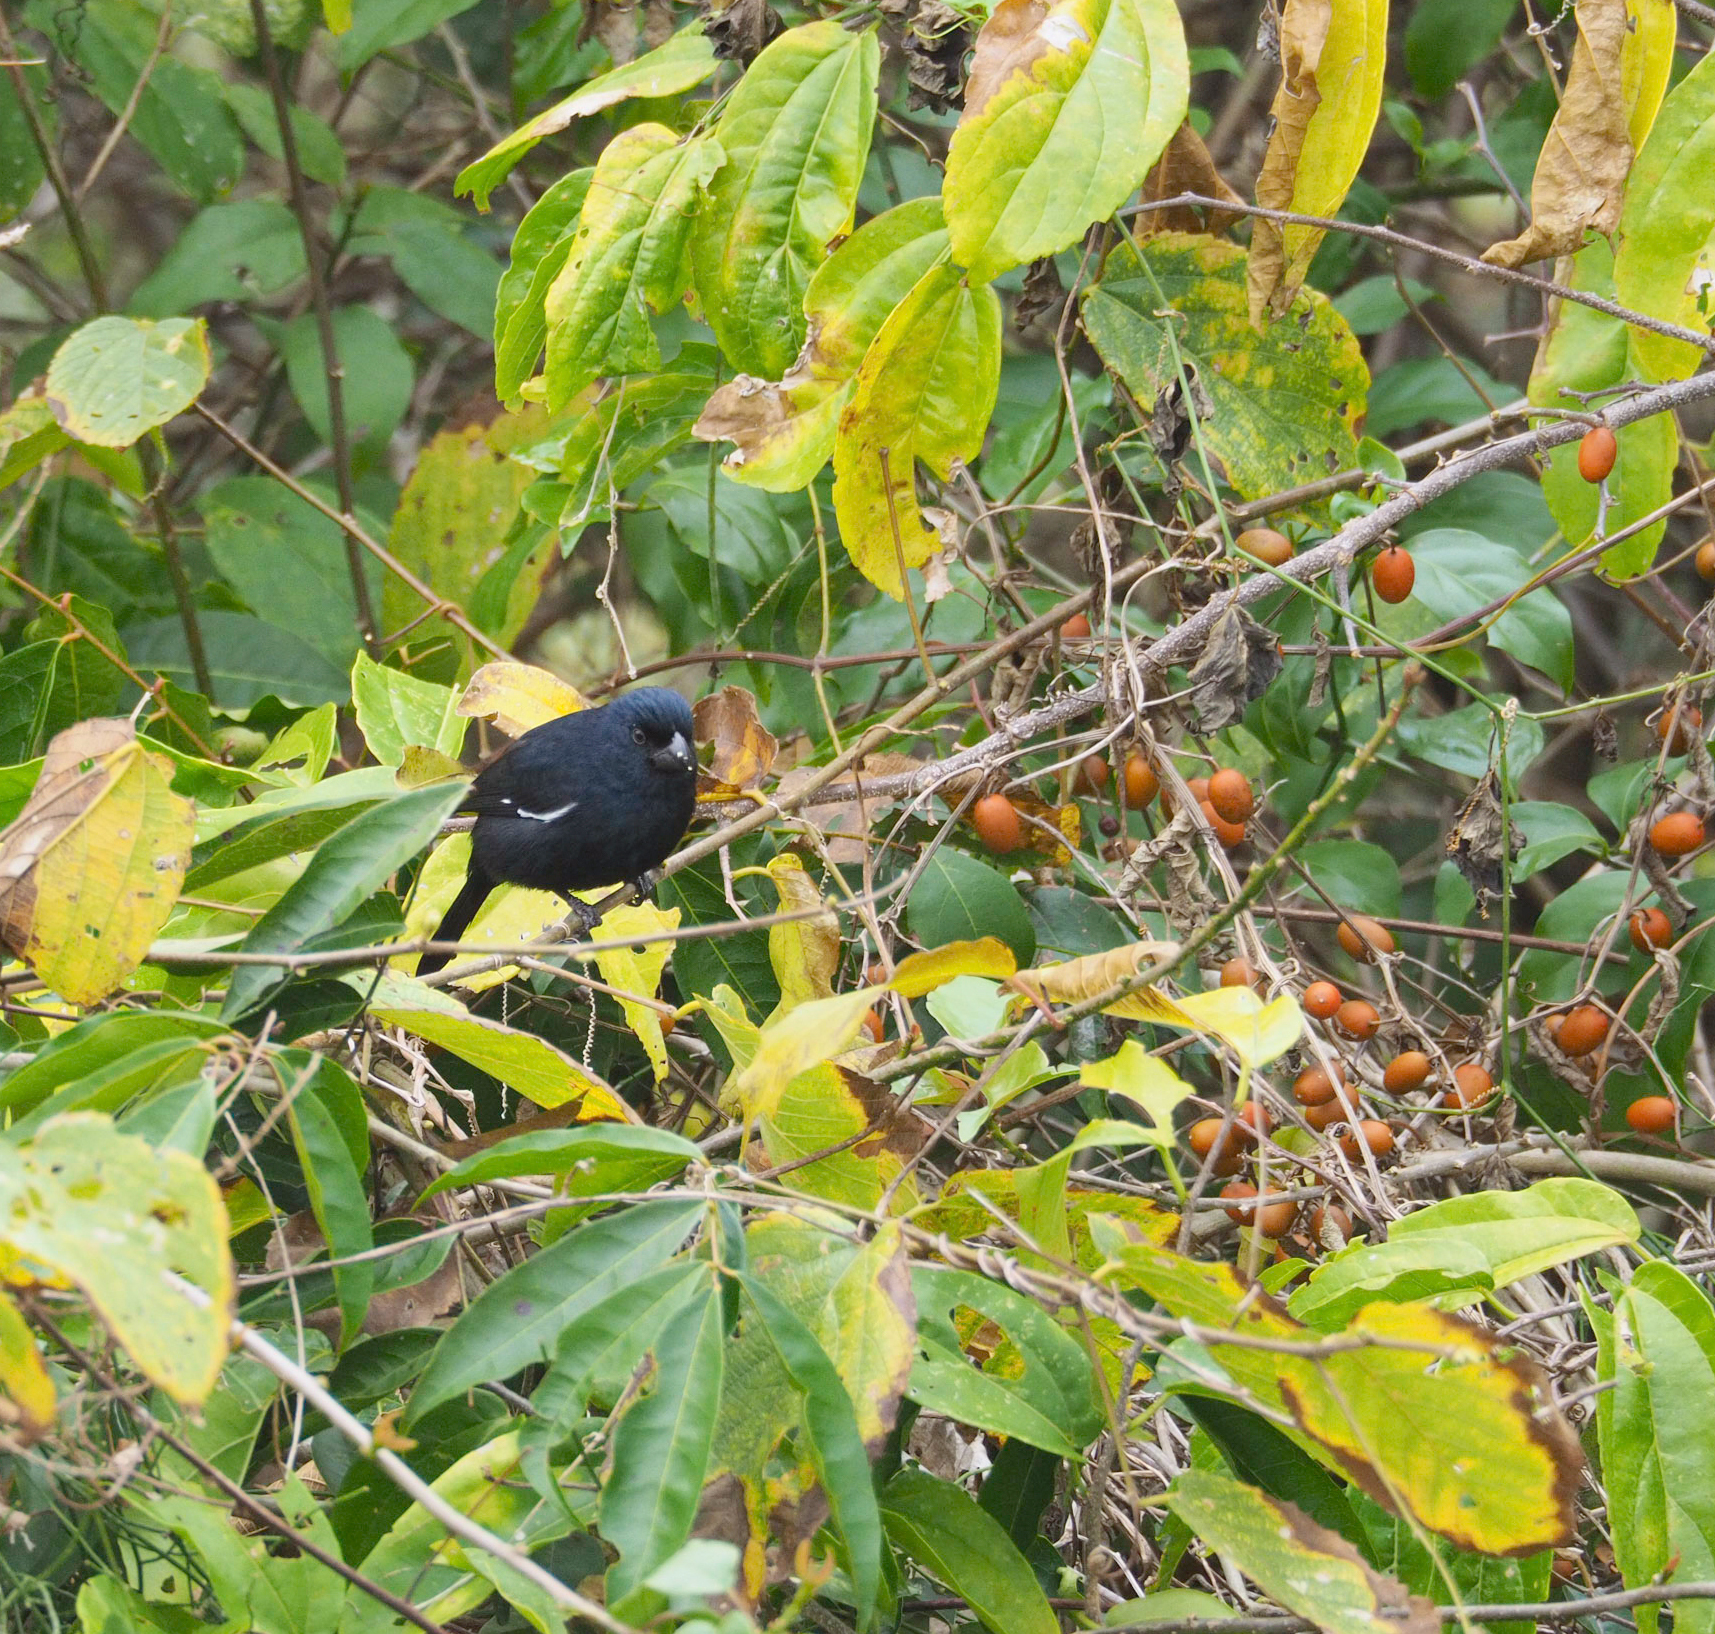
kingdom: Animalia
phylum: Chordata
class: Aves
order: Passeriformes
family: Thraupidae
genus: Melopyrrha
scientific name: Melopyrrha nigra
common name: Cuban bullfinch
